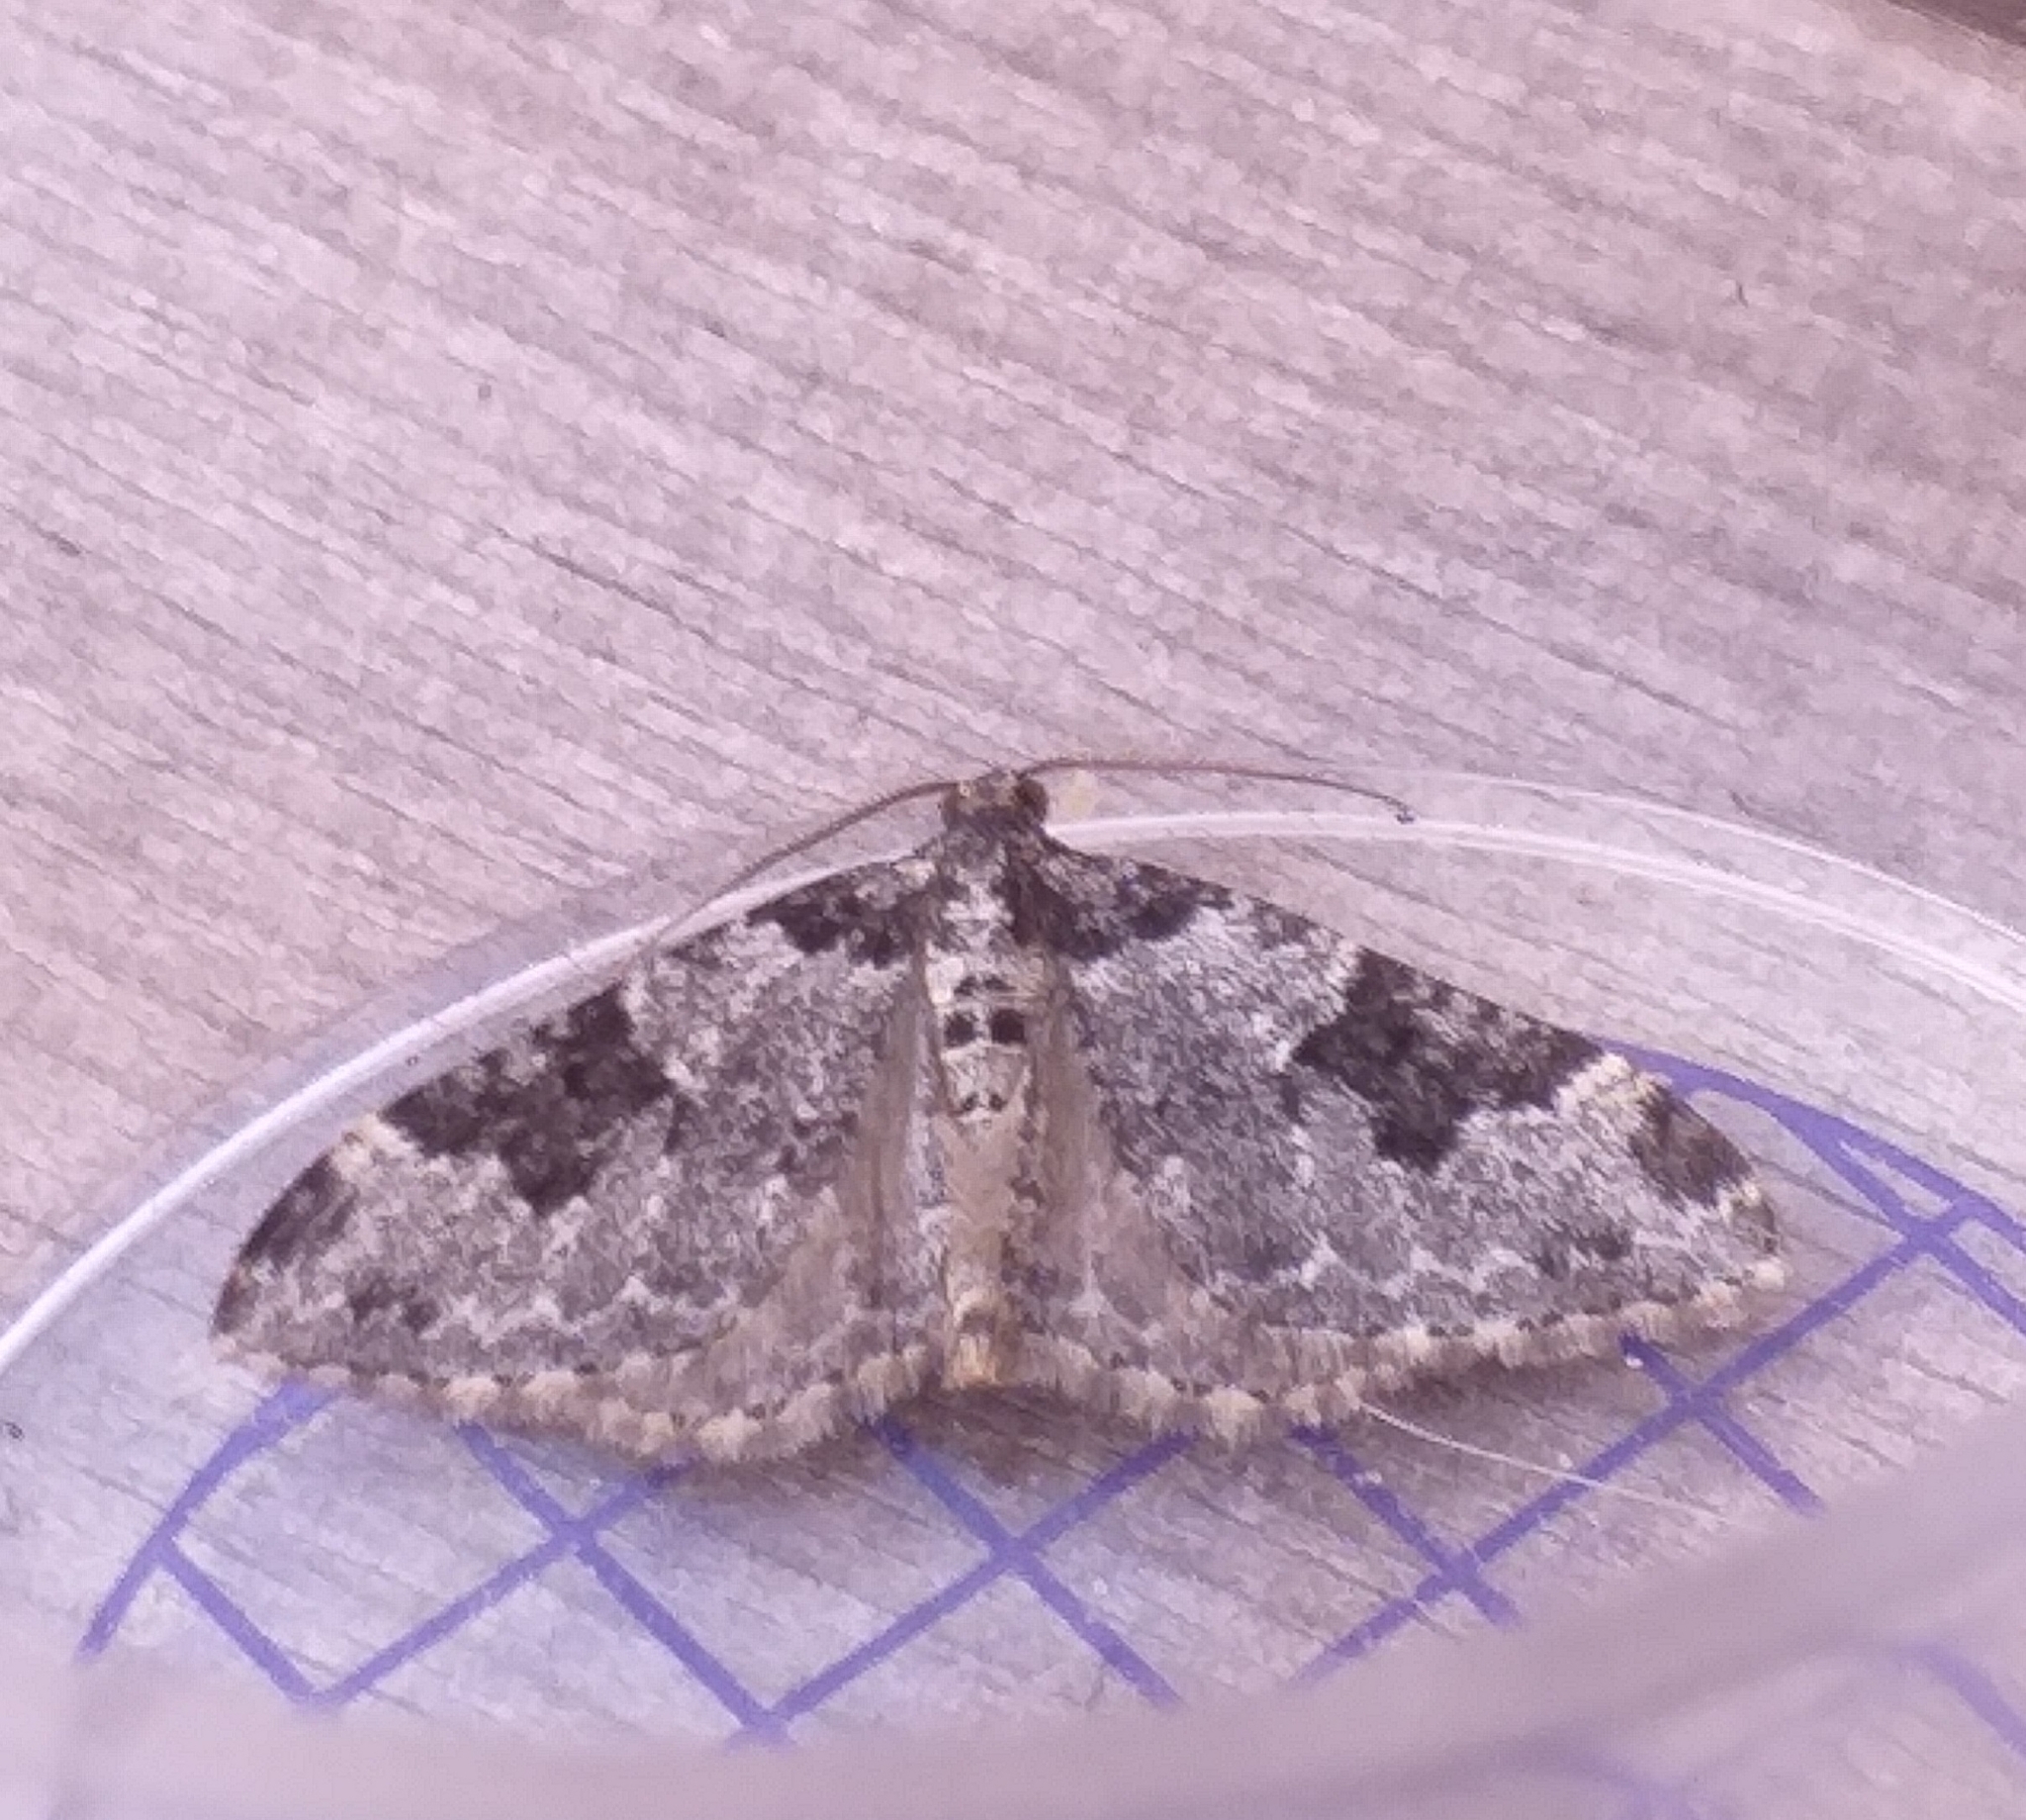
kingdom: Animalia
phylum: Arthropoda
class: Insecta
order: Lepidoptera
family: Geometridae
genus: Xanthorhoe
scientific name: Xanthorhoe fluctuata
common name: Garden carpet
